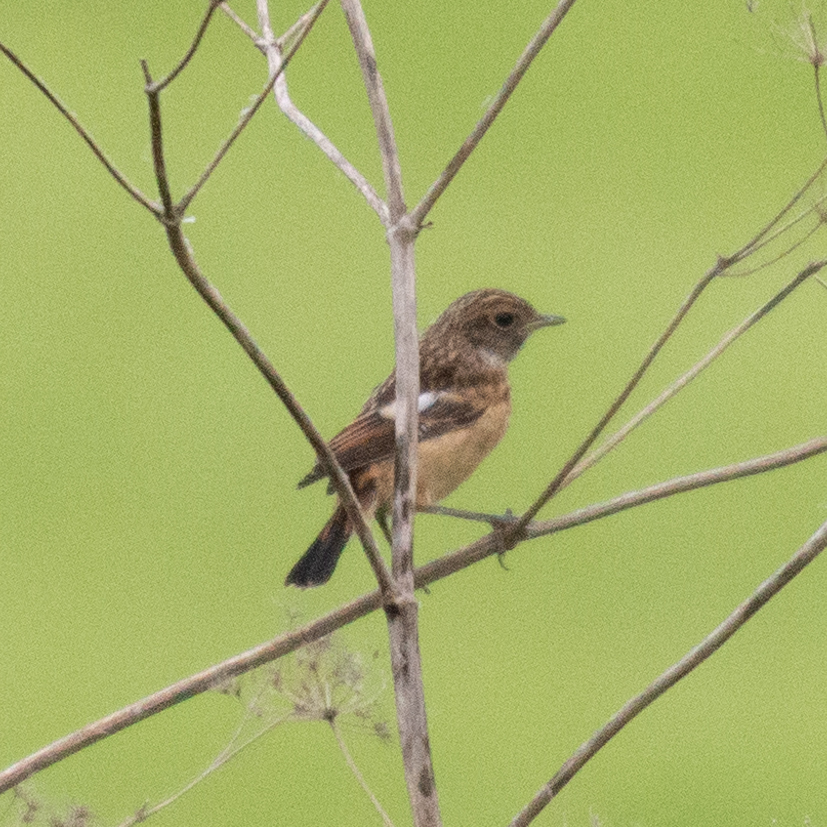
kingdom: Animalia
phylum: Chordata
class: Aves
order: Passeriformes
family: Muscicapidae
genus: Saxicola
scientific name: Saxicola rubicola
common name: European stonechat
